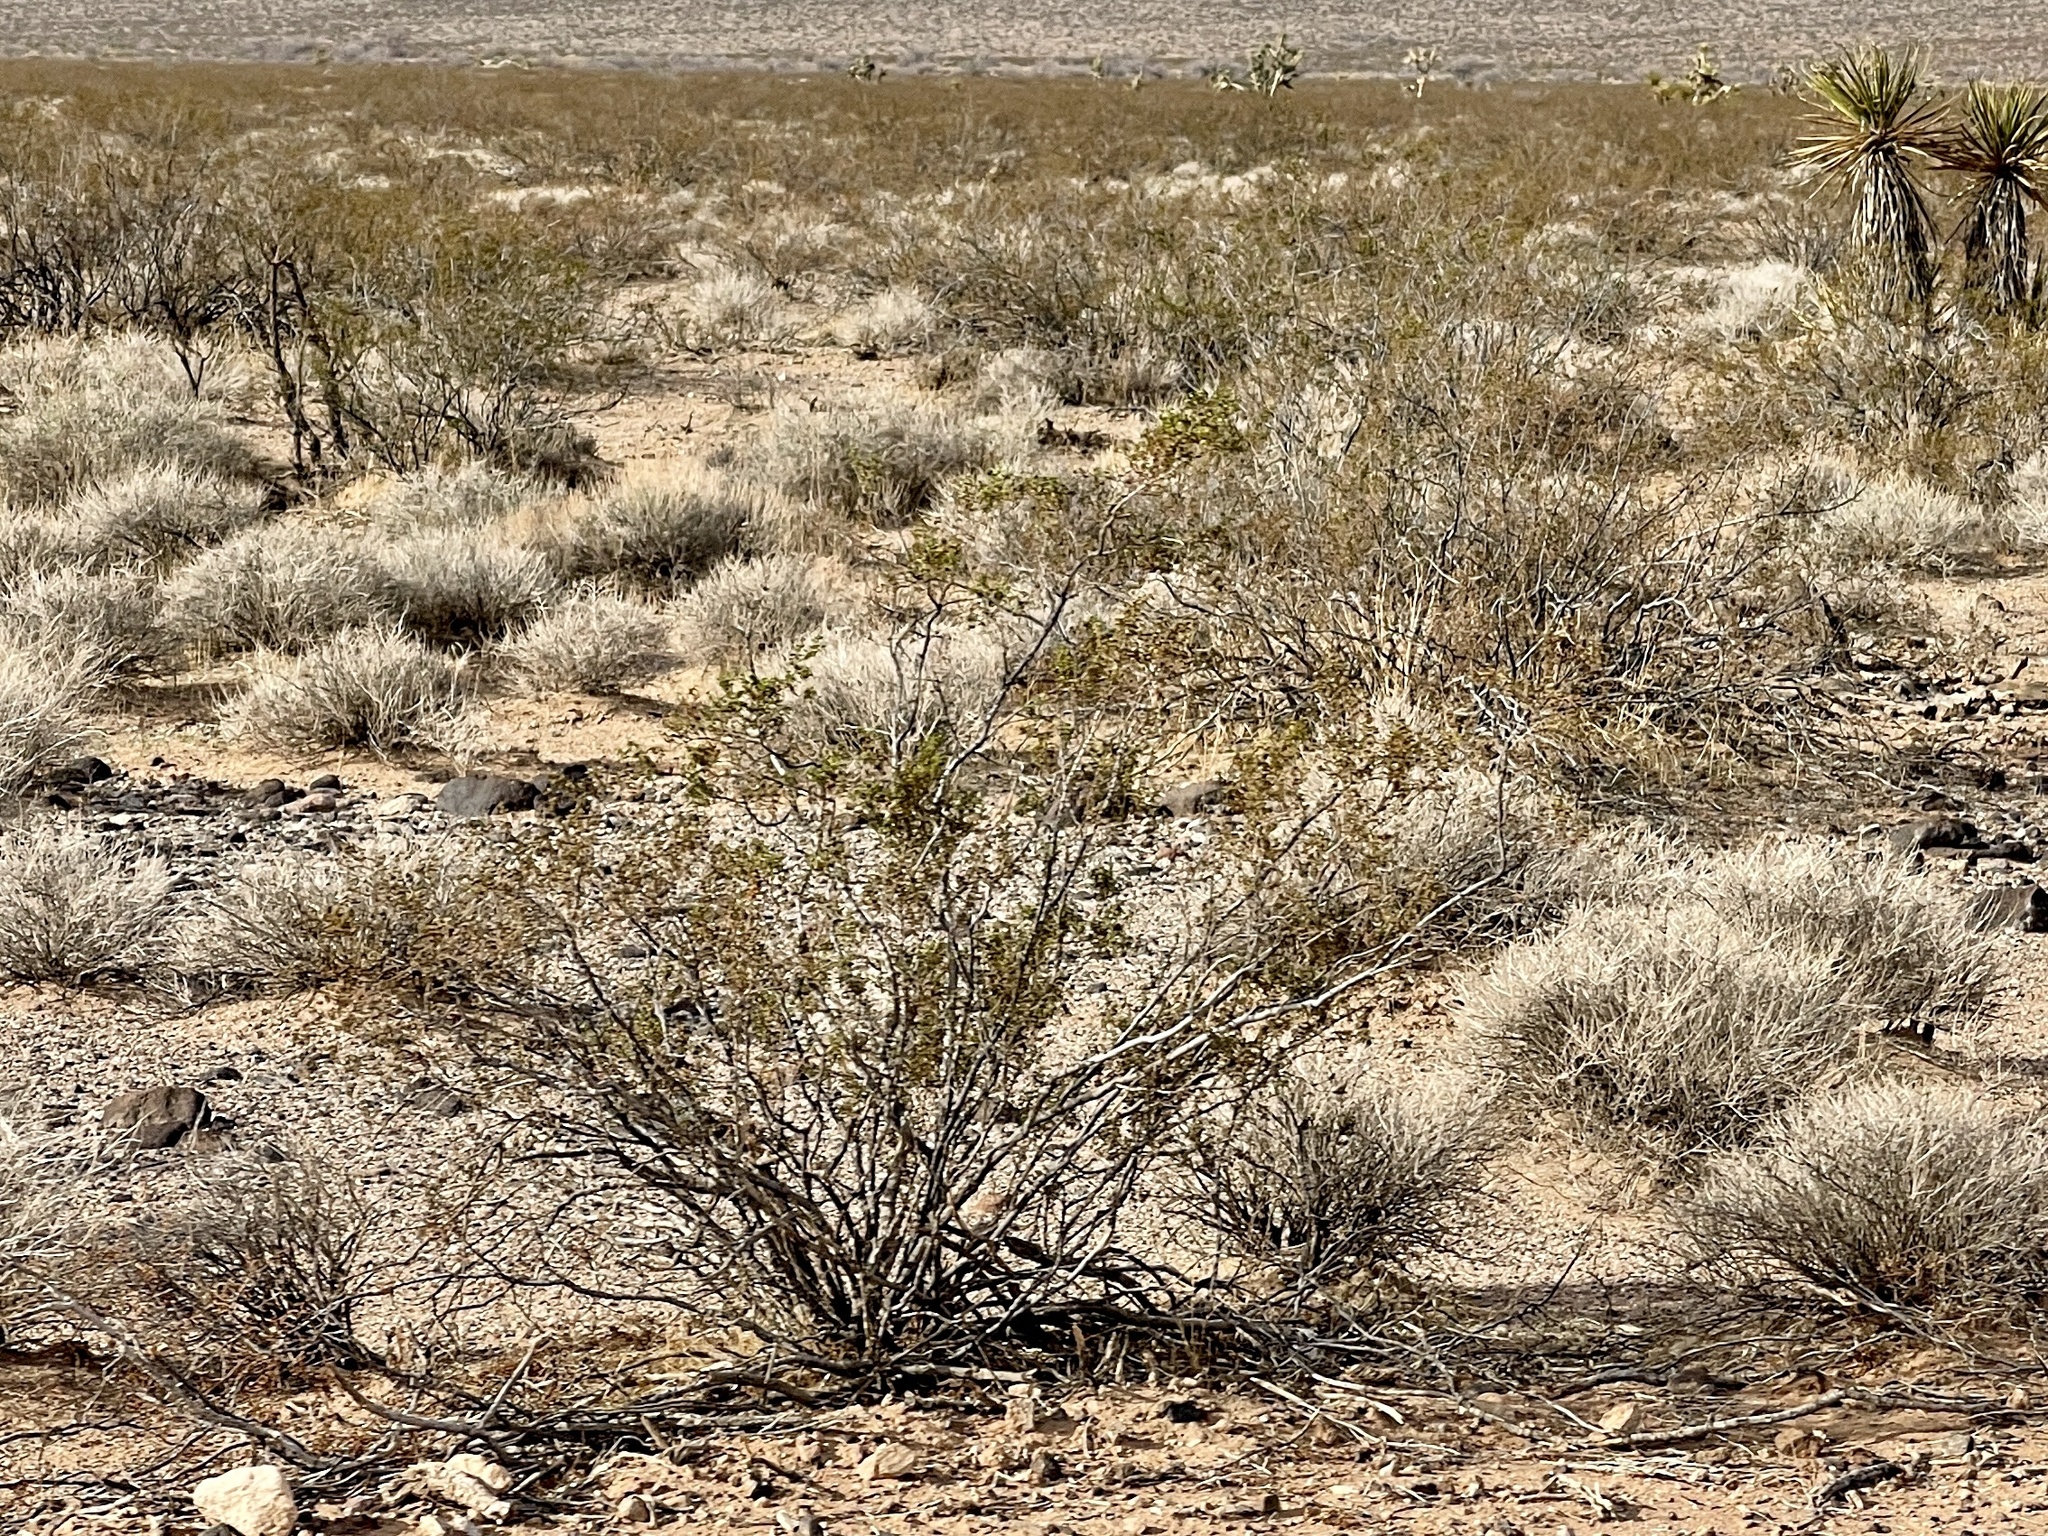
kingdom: Plantae
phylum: Tracheophyta
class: Magnoliopsida
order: Zygophyllales
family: Zygophyllaceae
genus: Larrea
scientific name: Larrea tridentata
